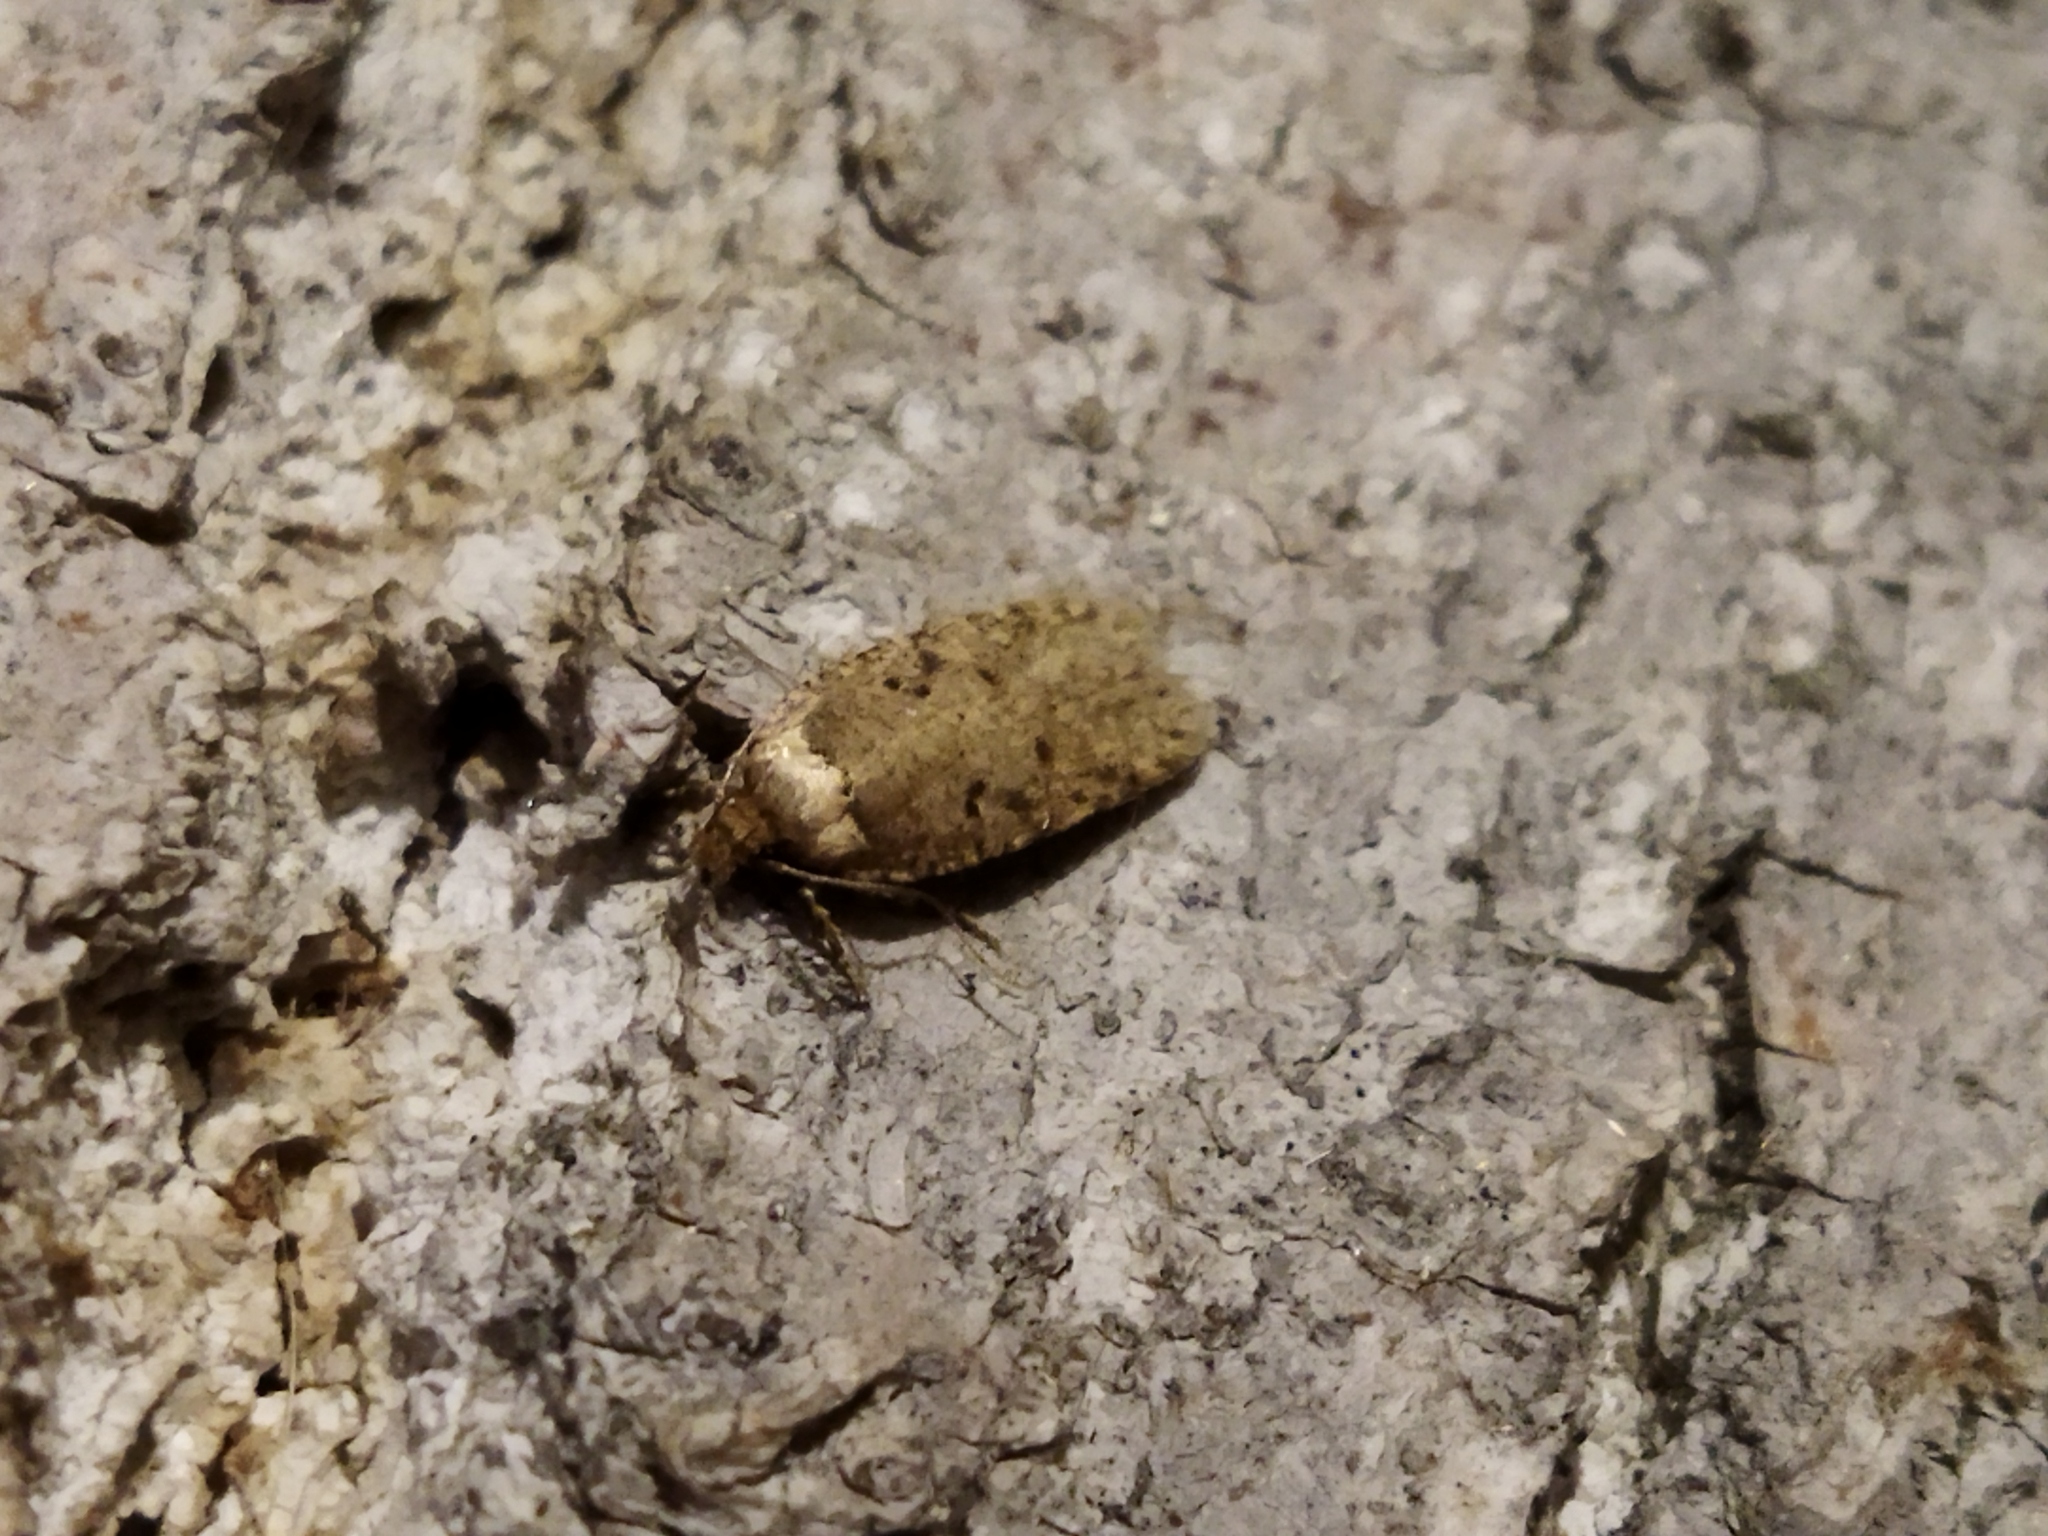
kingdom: Animalia
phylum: Arthropoda
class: Insecta
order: Lepidoptera
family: Depressariidae
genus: Agonopterix
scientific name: Agonopterix arenella
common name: Brindled flat-body
